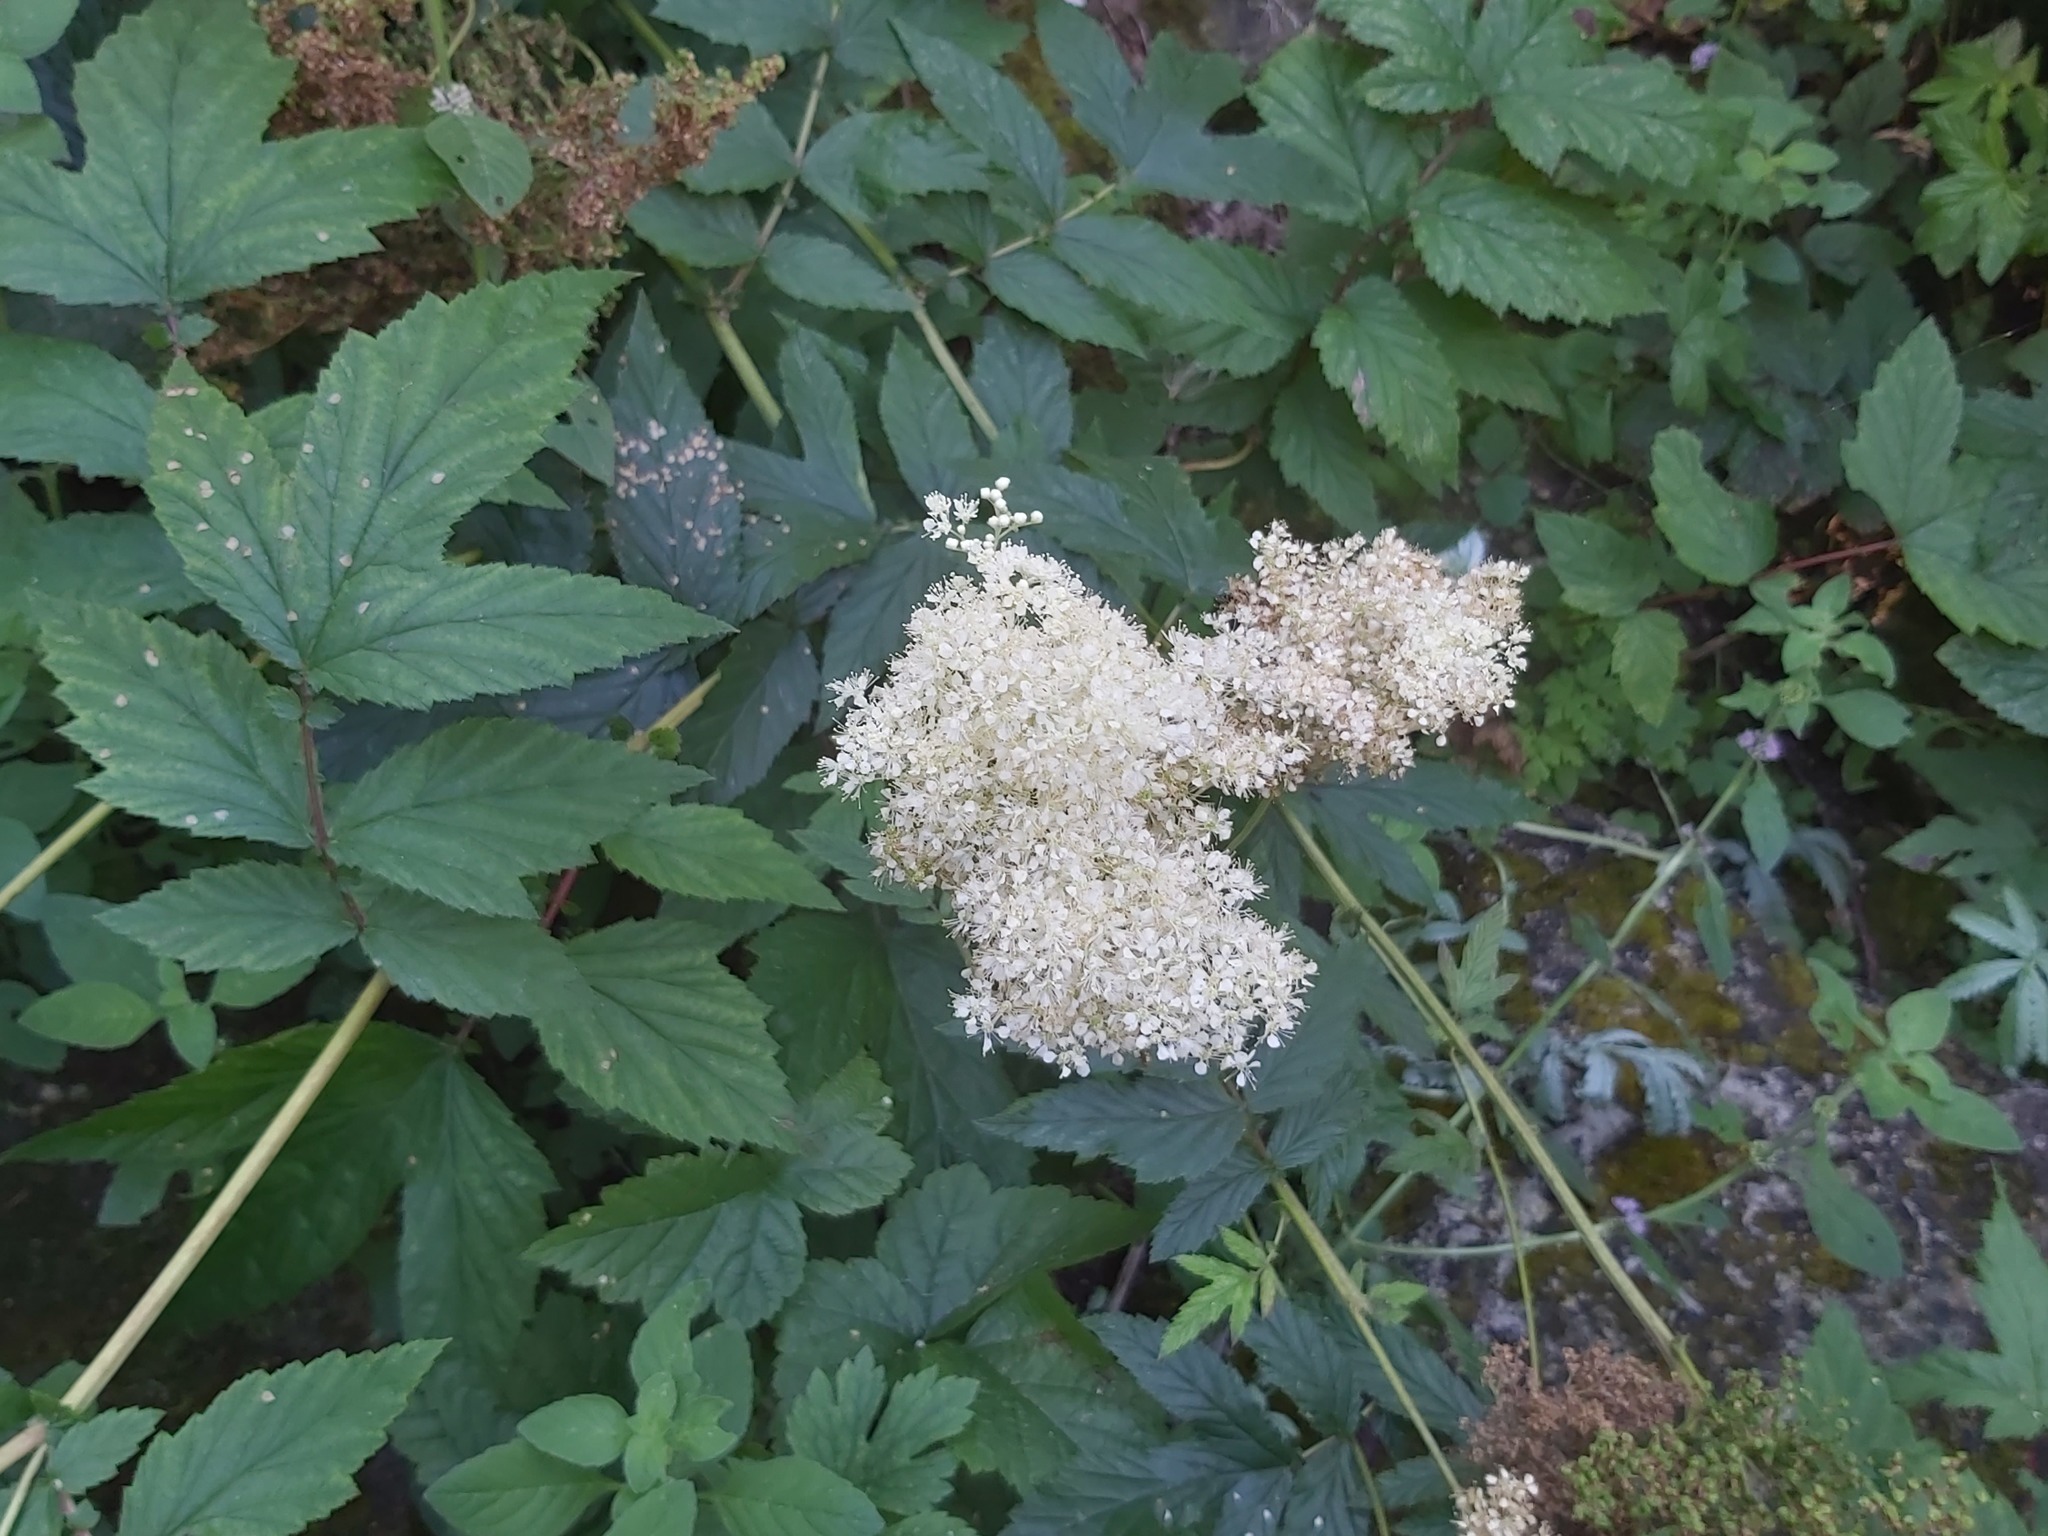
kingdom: Plantae
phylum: Tracheophyta
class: Magnoliopsida
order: Rosales
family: Rosaceae
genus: Filipendula
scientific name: Filipendula ulmaria
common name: Meadowsweet
